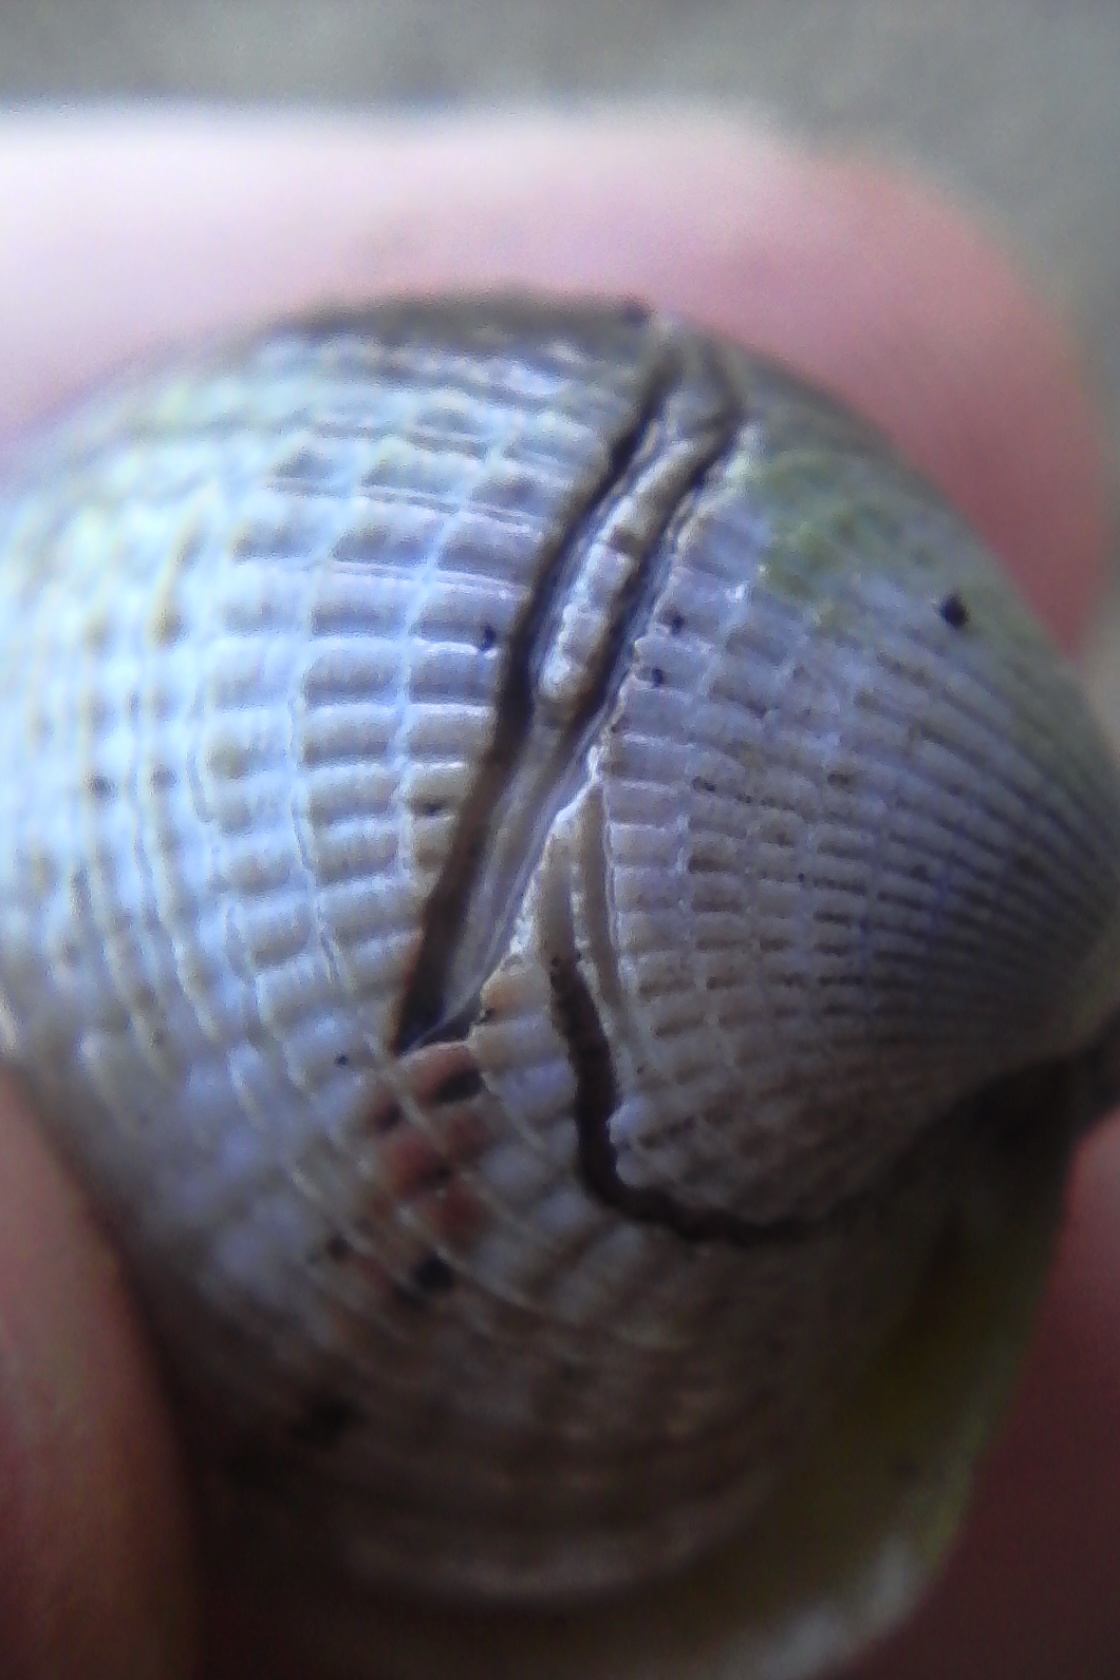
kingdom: Animalia
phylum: Annelida
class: Polychaeta
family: Spionidae
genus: Boccardia
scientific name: Boccardia acus
